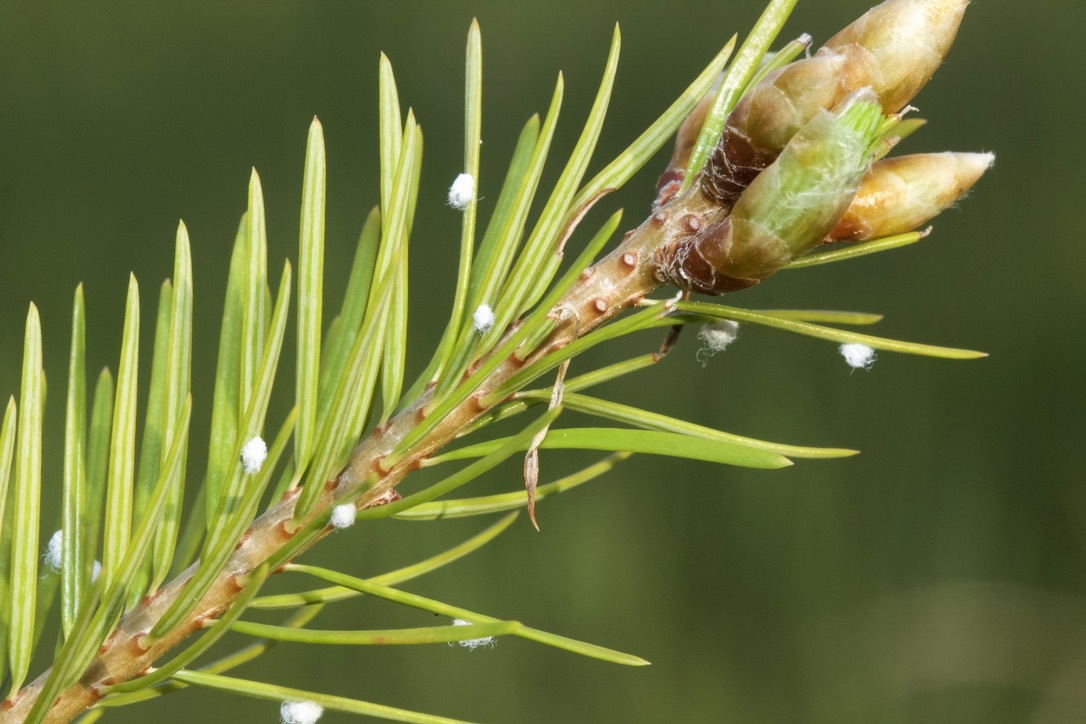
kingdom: Animalia
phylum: Arthropoda
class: Insecta
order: Hemiptera
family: Adelgidae
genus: Adelges
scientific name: Adelges cooleyi
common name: Cooley spruce gall adelgid
